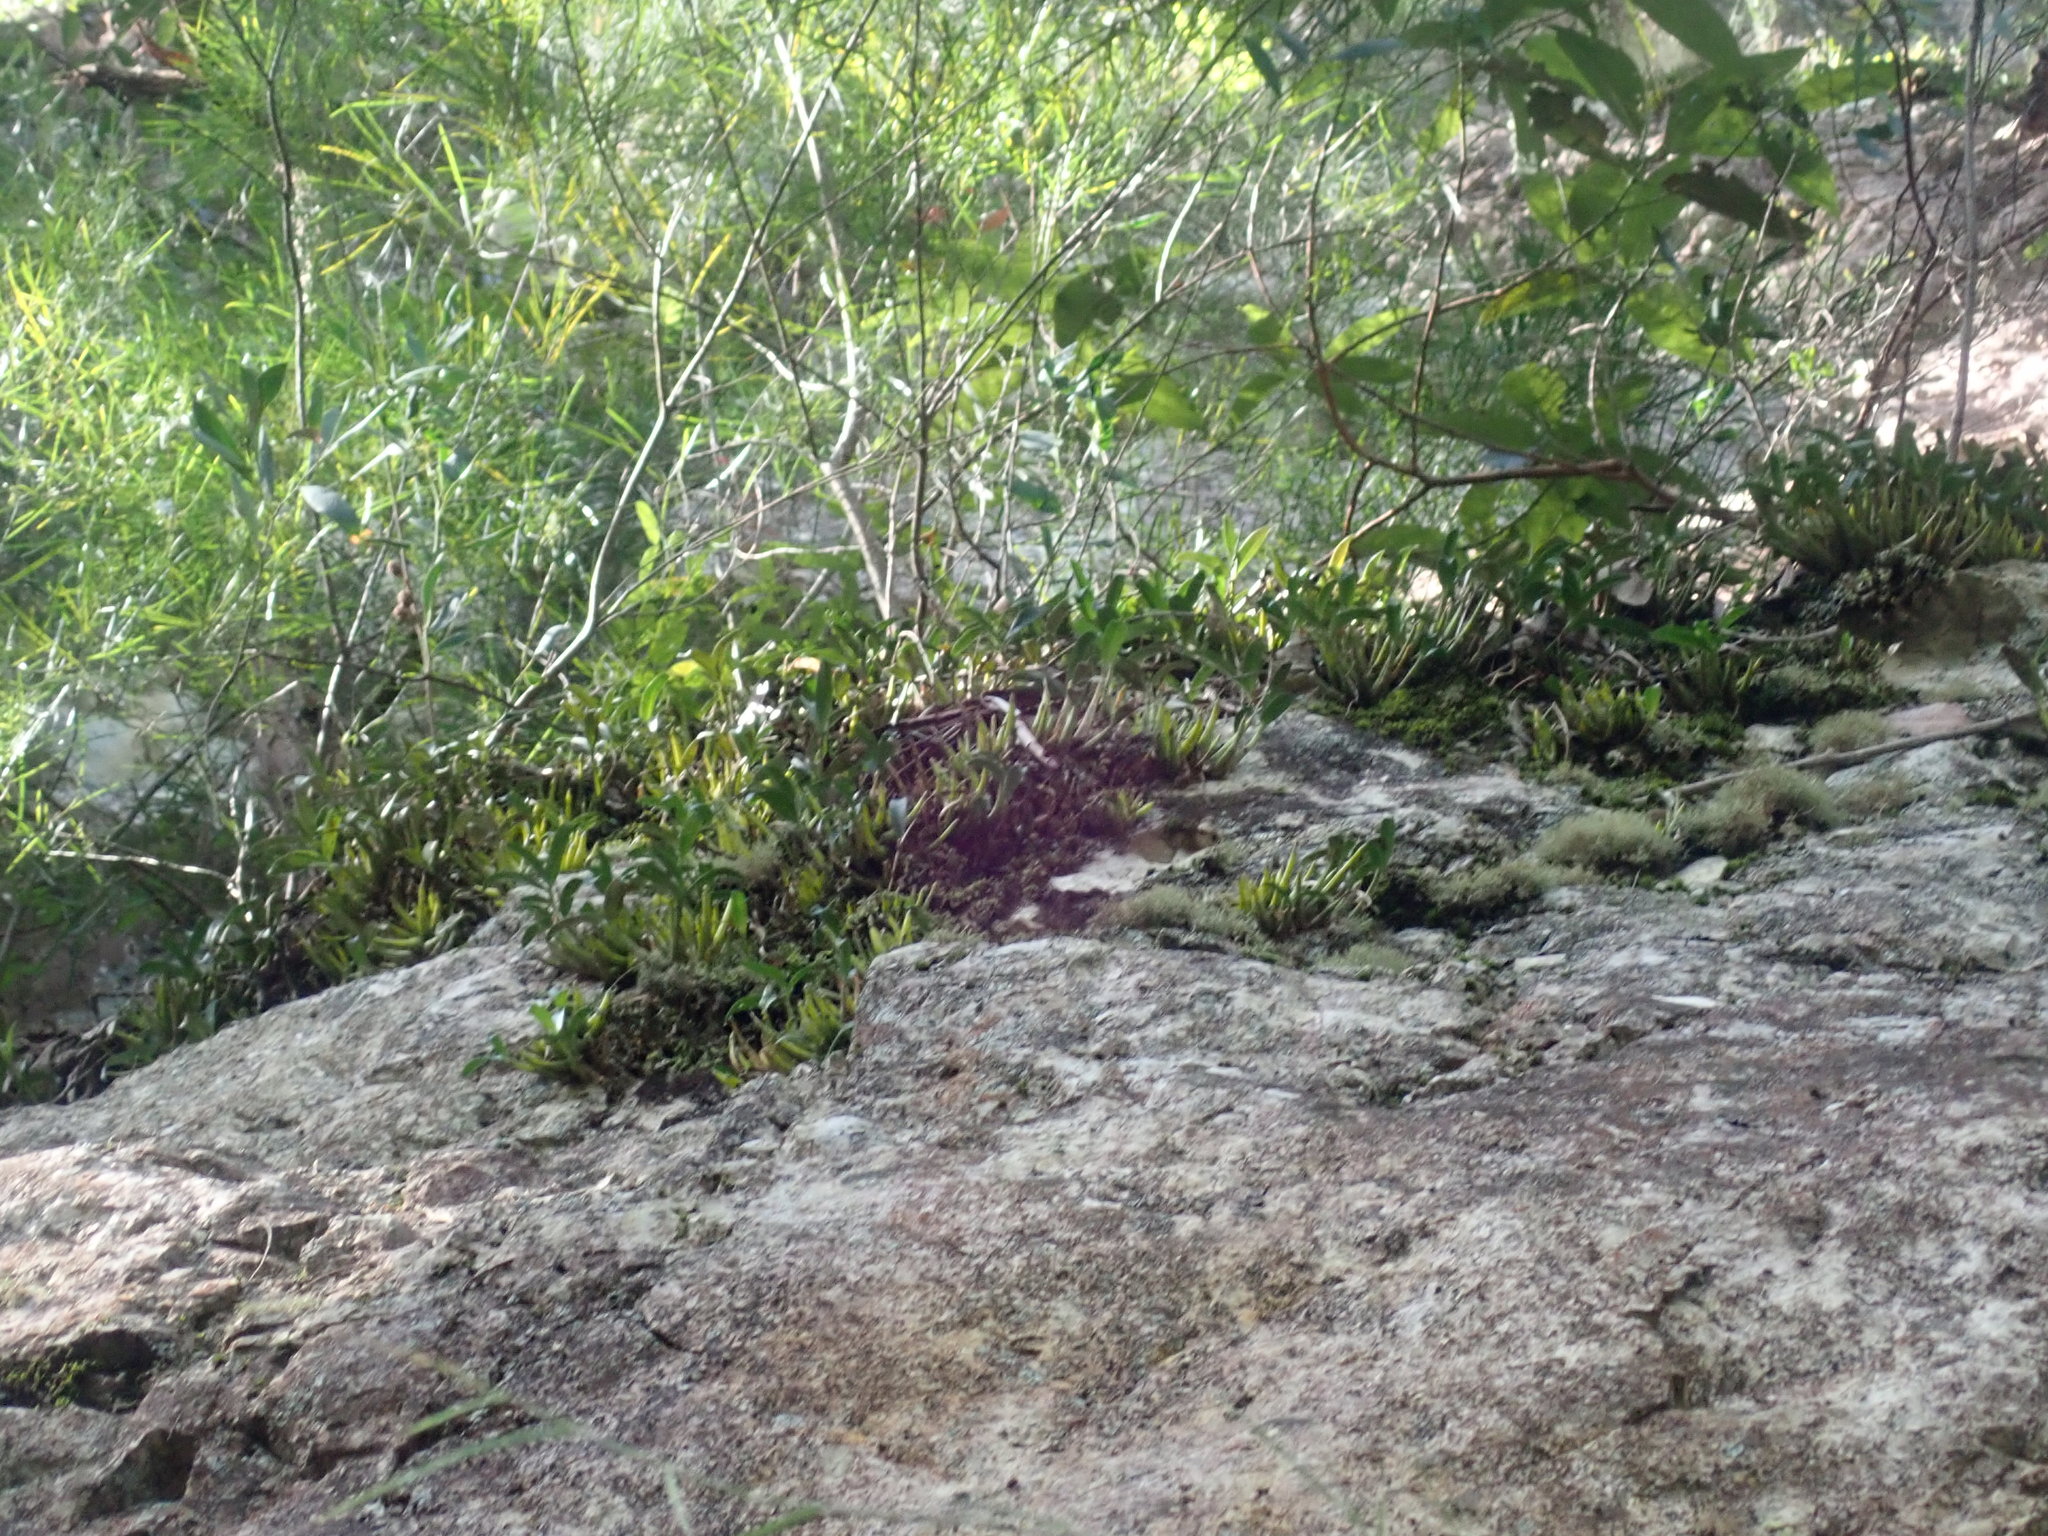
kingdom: Plantae
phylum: Tracheophyta
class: Liliopsida
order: Asparagales
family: Orchidaceae
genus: Dendrobium
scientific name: Dendrobium speciosum
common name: Rock-lily
